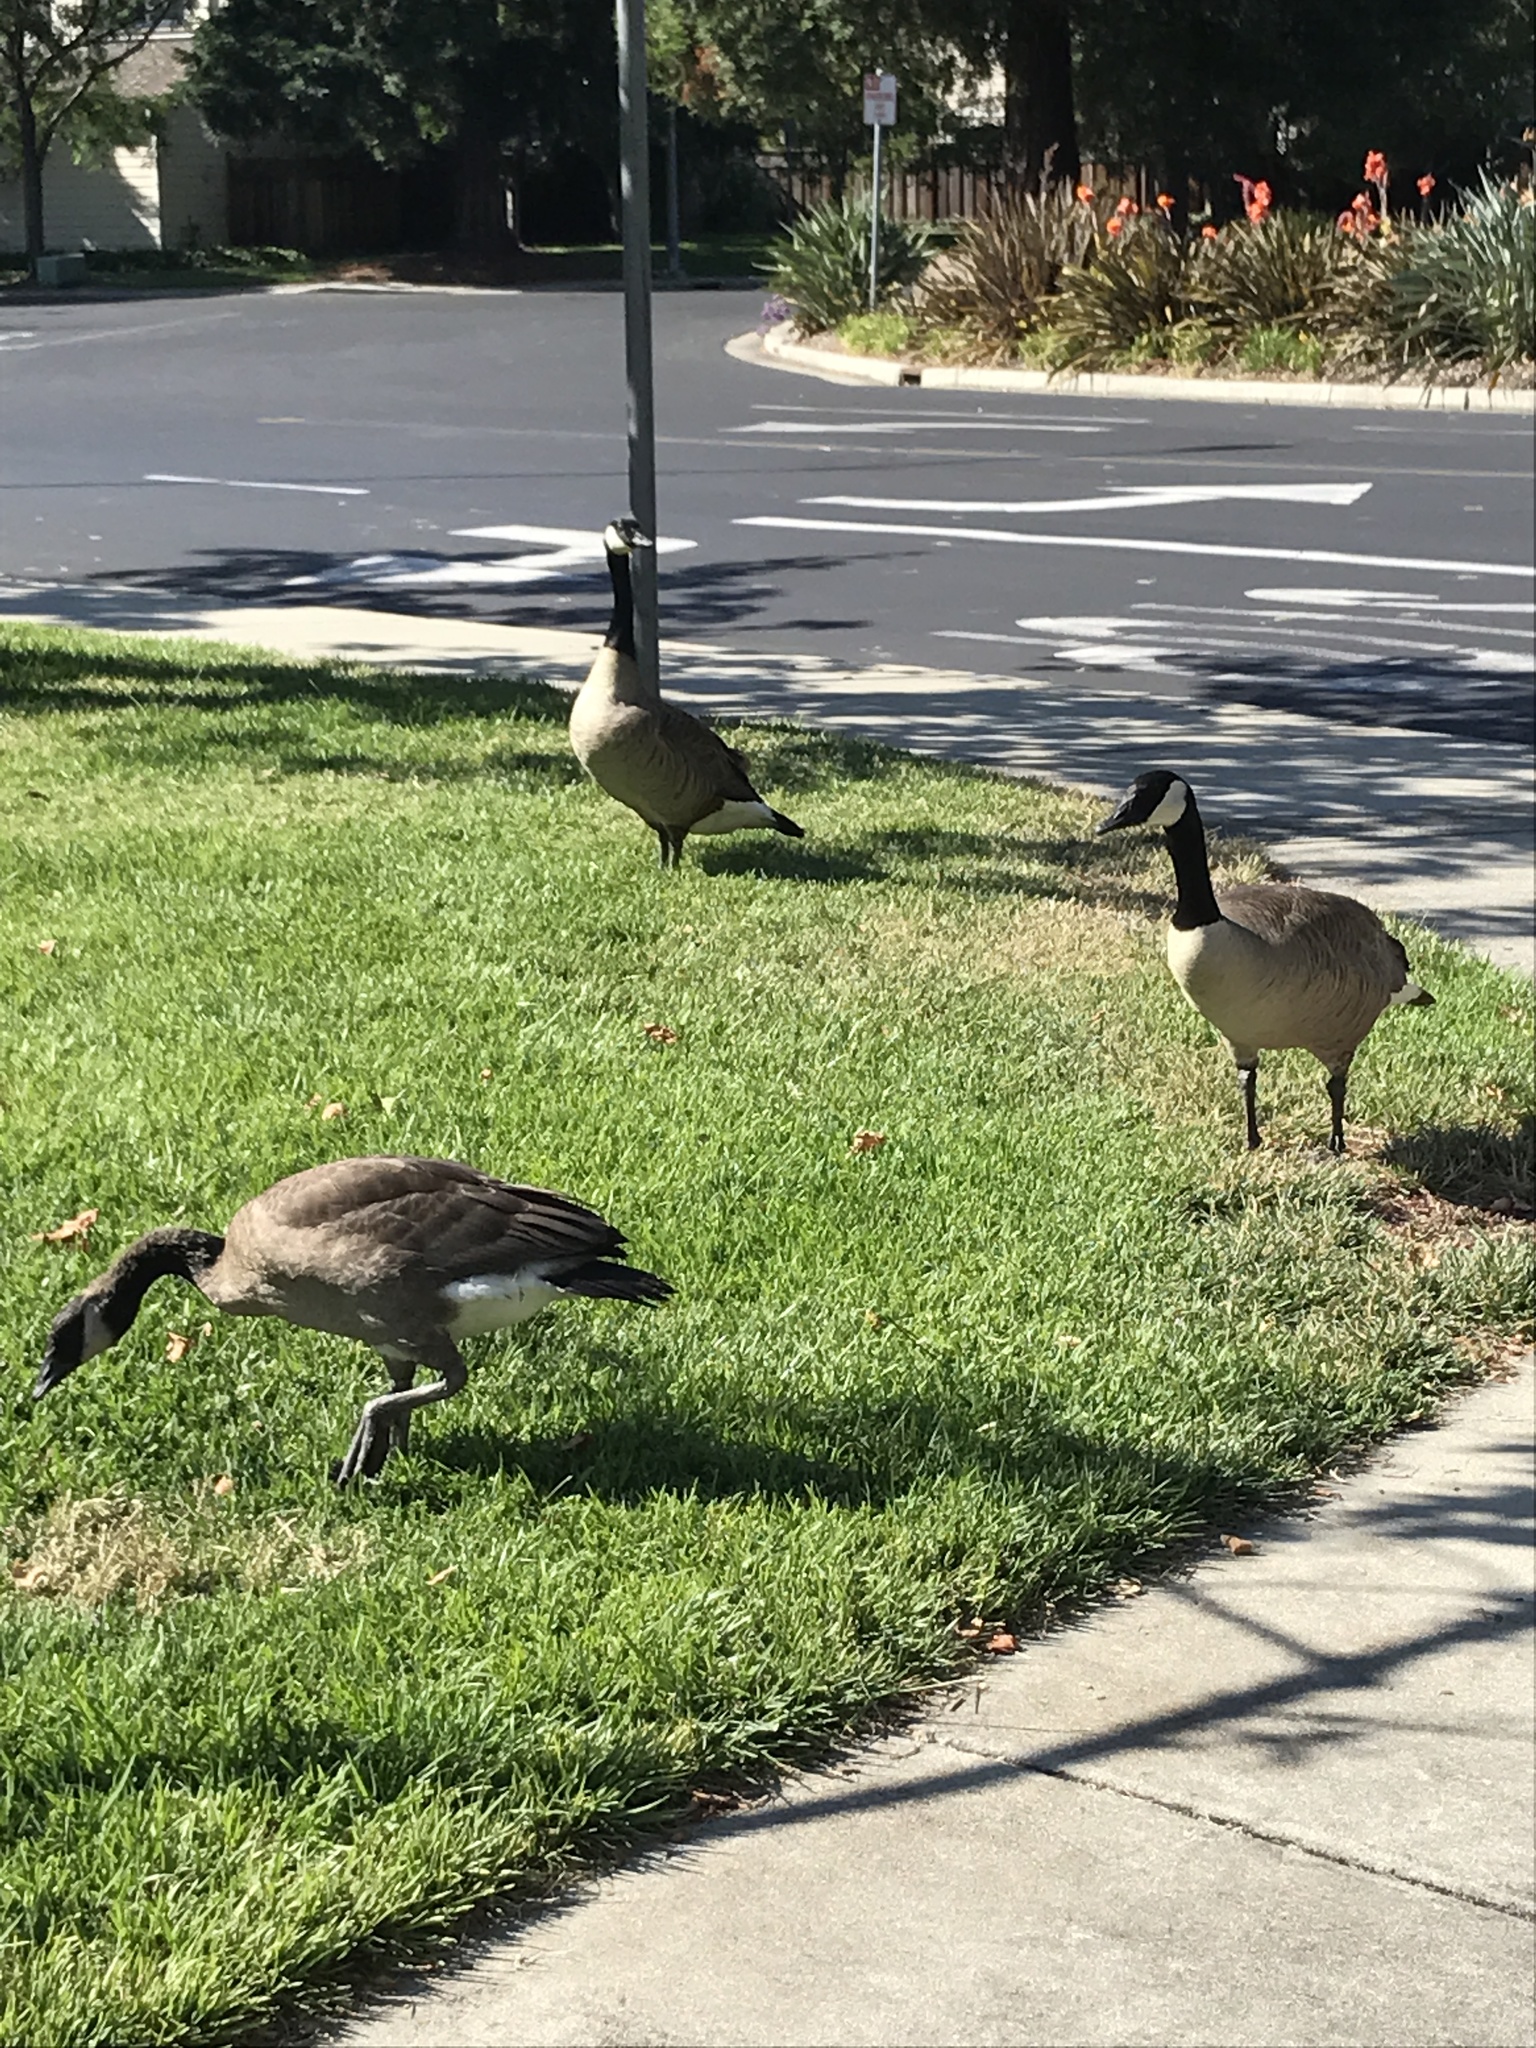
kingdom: Animalia
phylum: Chordata
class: Aves
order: Anseriformes
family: Anatidae
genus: Branta
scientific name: Branta canadensis
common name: Canada goose
